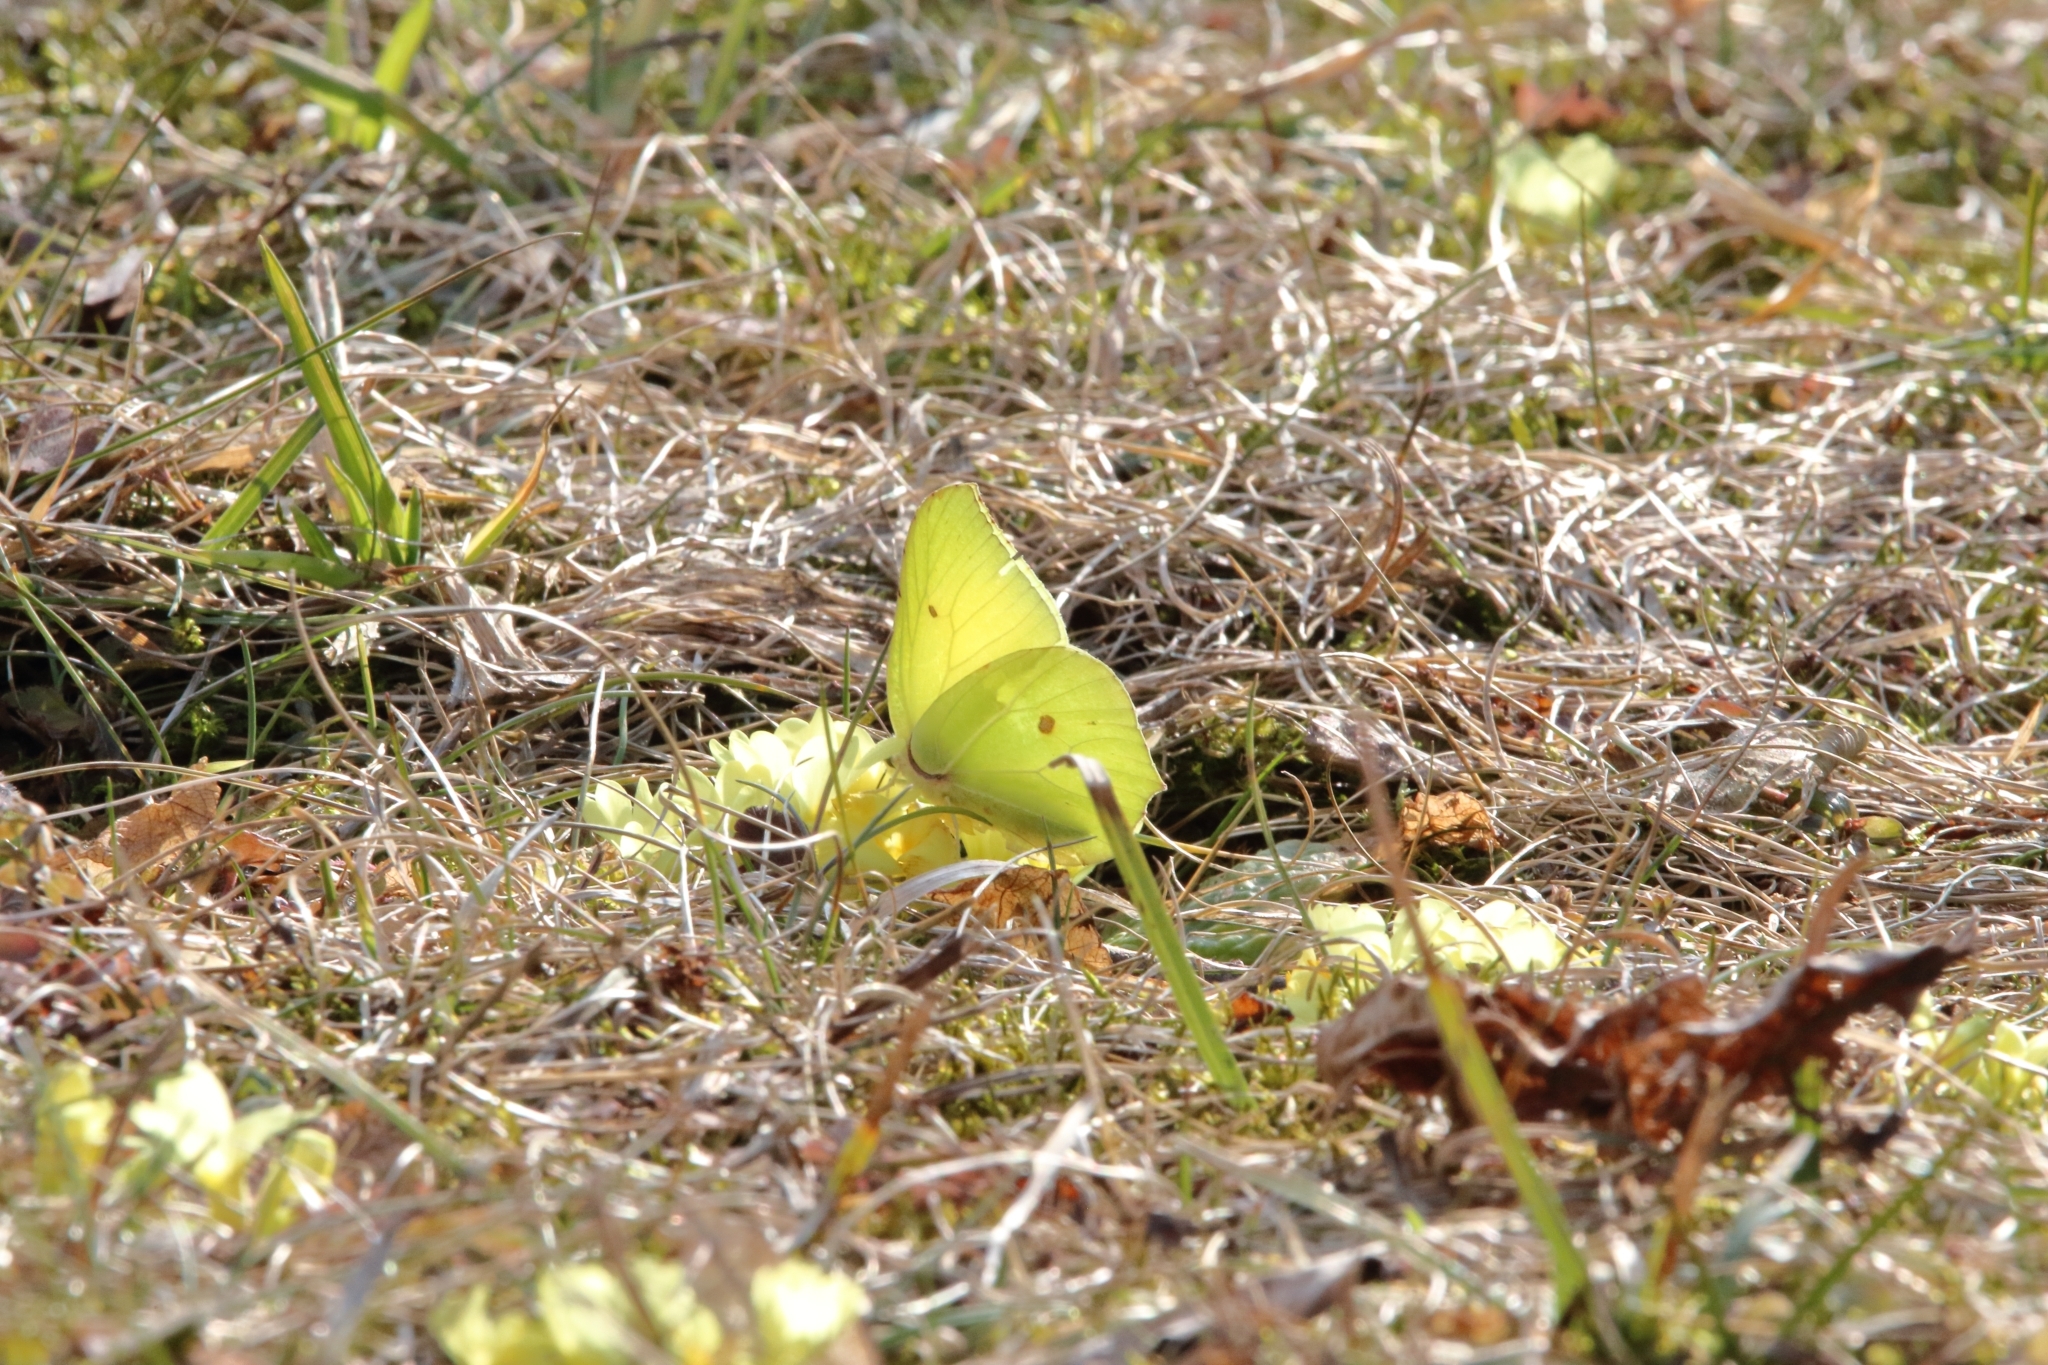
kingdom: Animalia
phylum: Arthropoda
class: Insecta
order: Lepidoptera
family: Pieridae
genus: Gonepteryx
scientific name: Gonepteryx rhamni
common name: Brimstone
